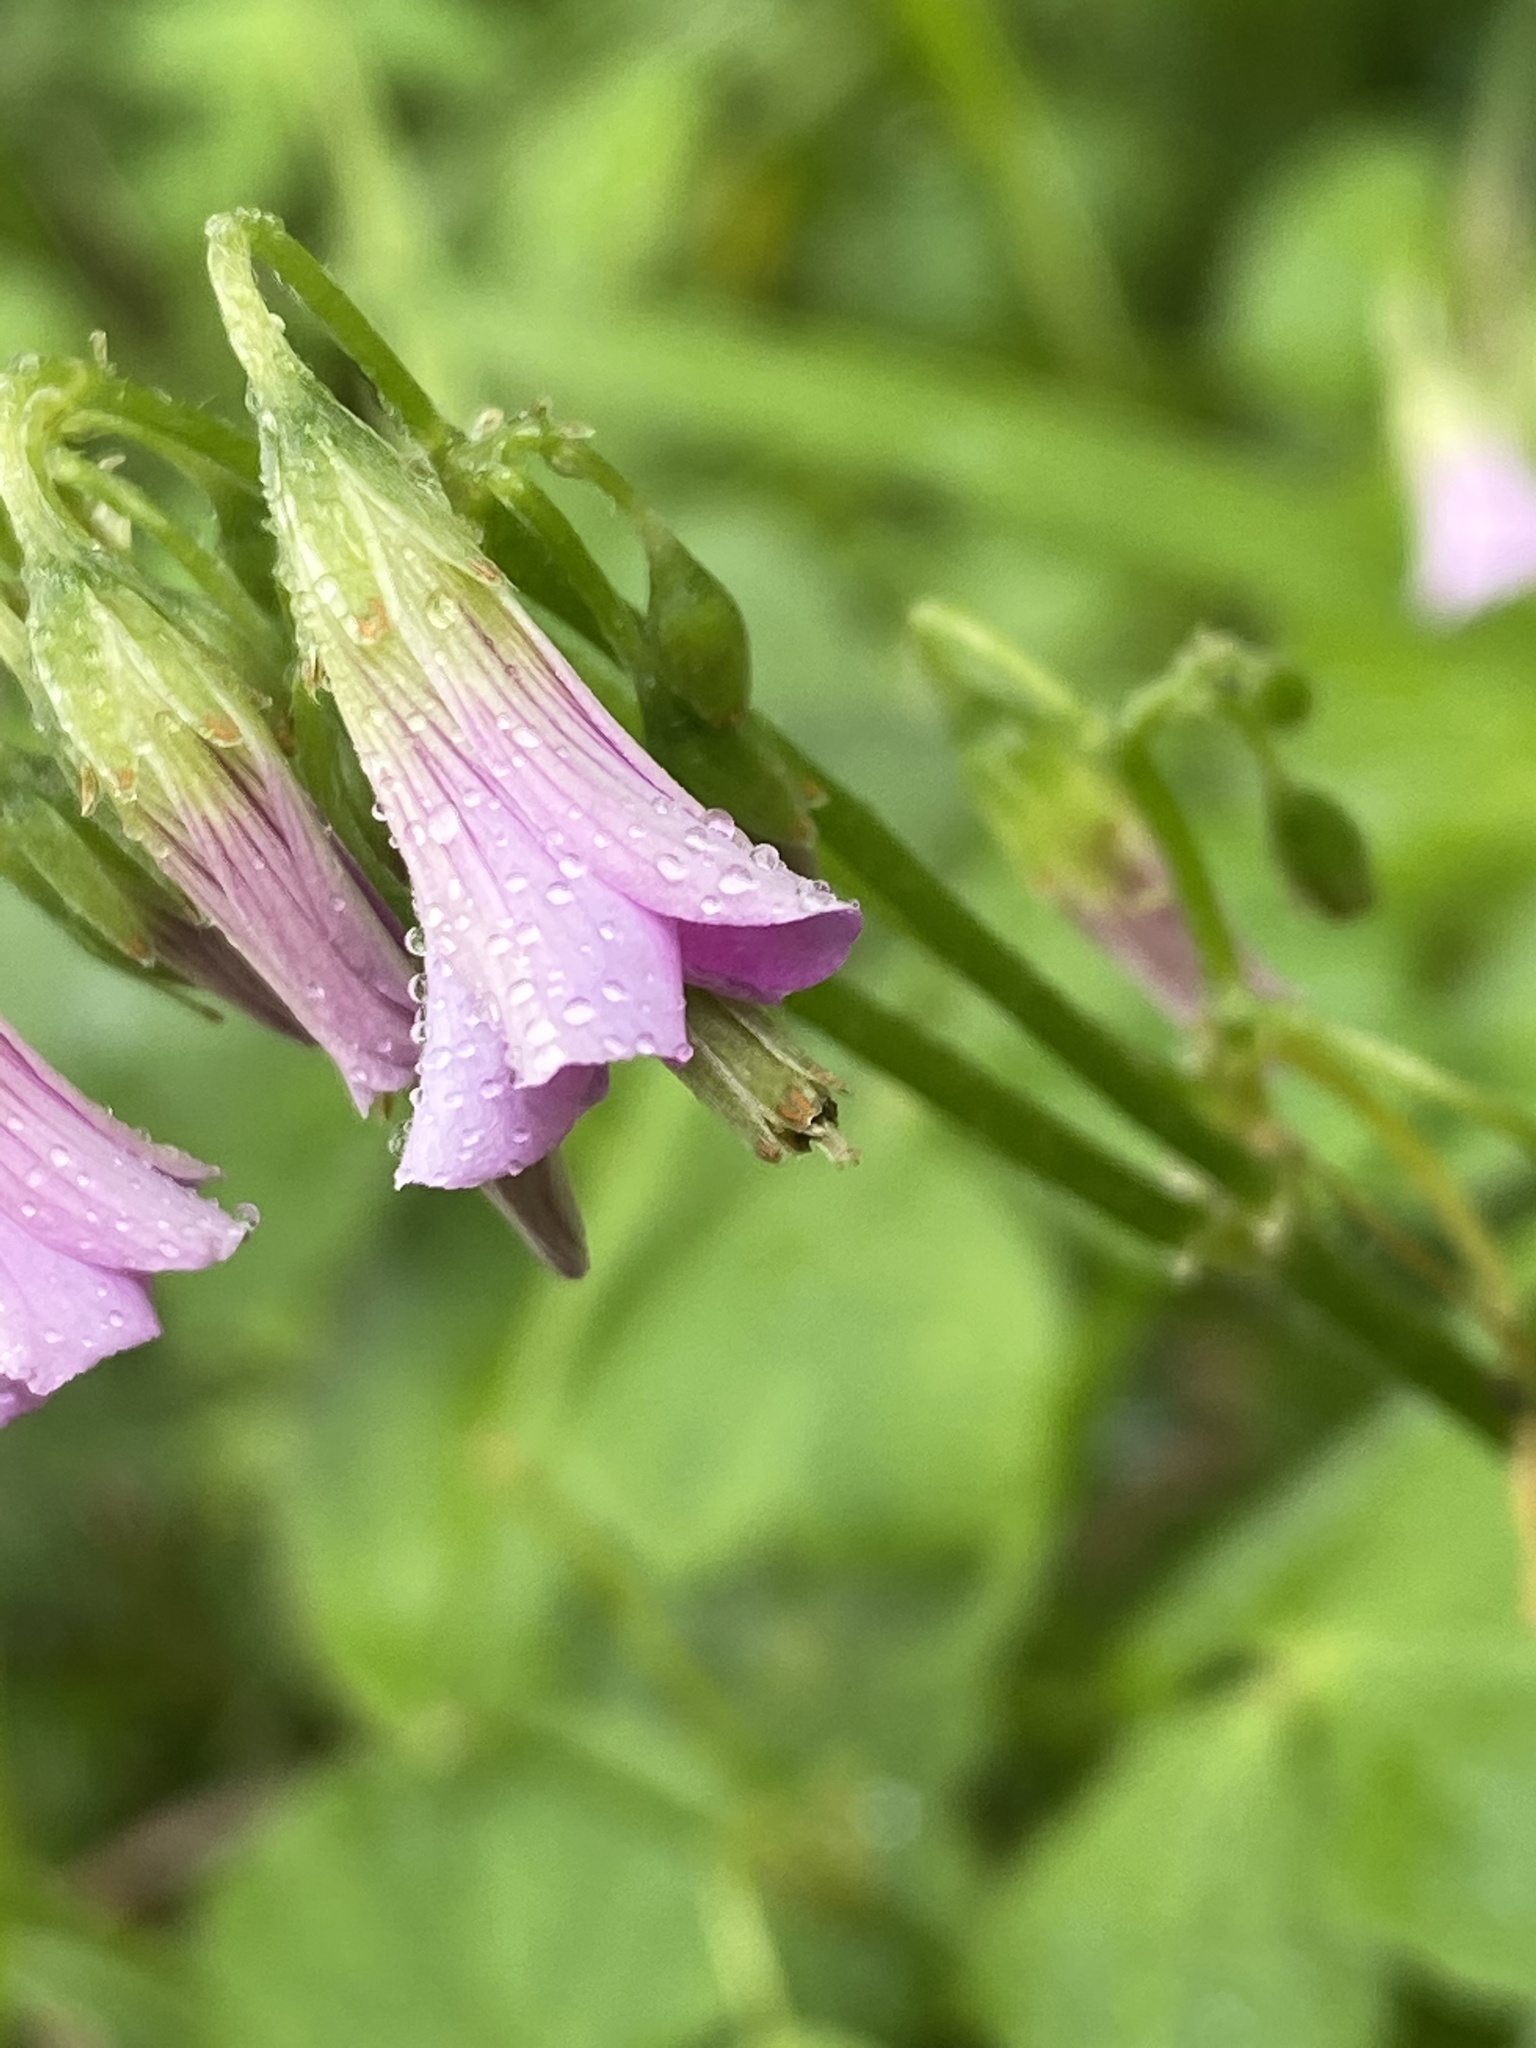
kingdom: Plantae
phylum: Tracheophyta
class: Magnoliopsida
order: Oxalidales
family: Oxalidaceae
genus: Oxalis
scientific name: Oxalis debilis
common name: Large-flowered pink-sorrel
